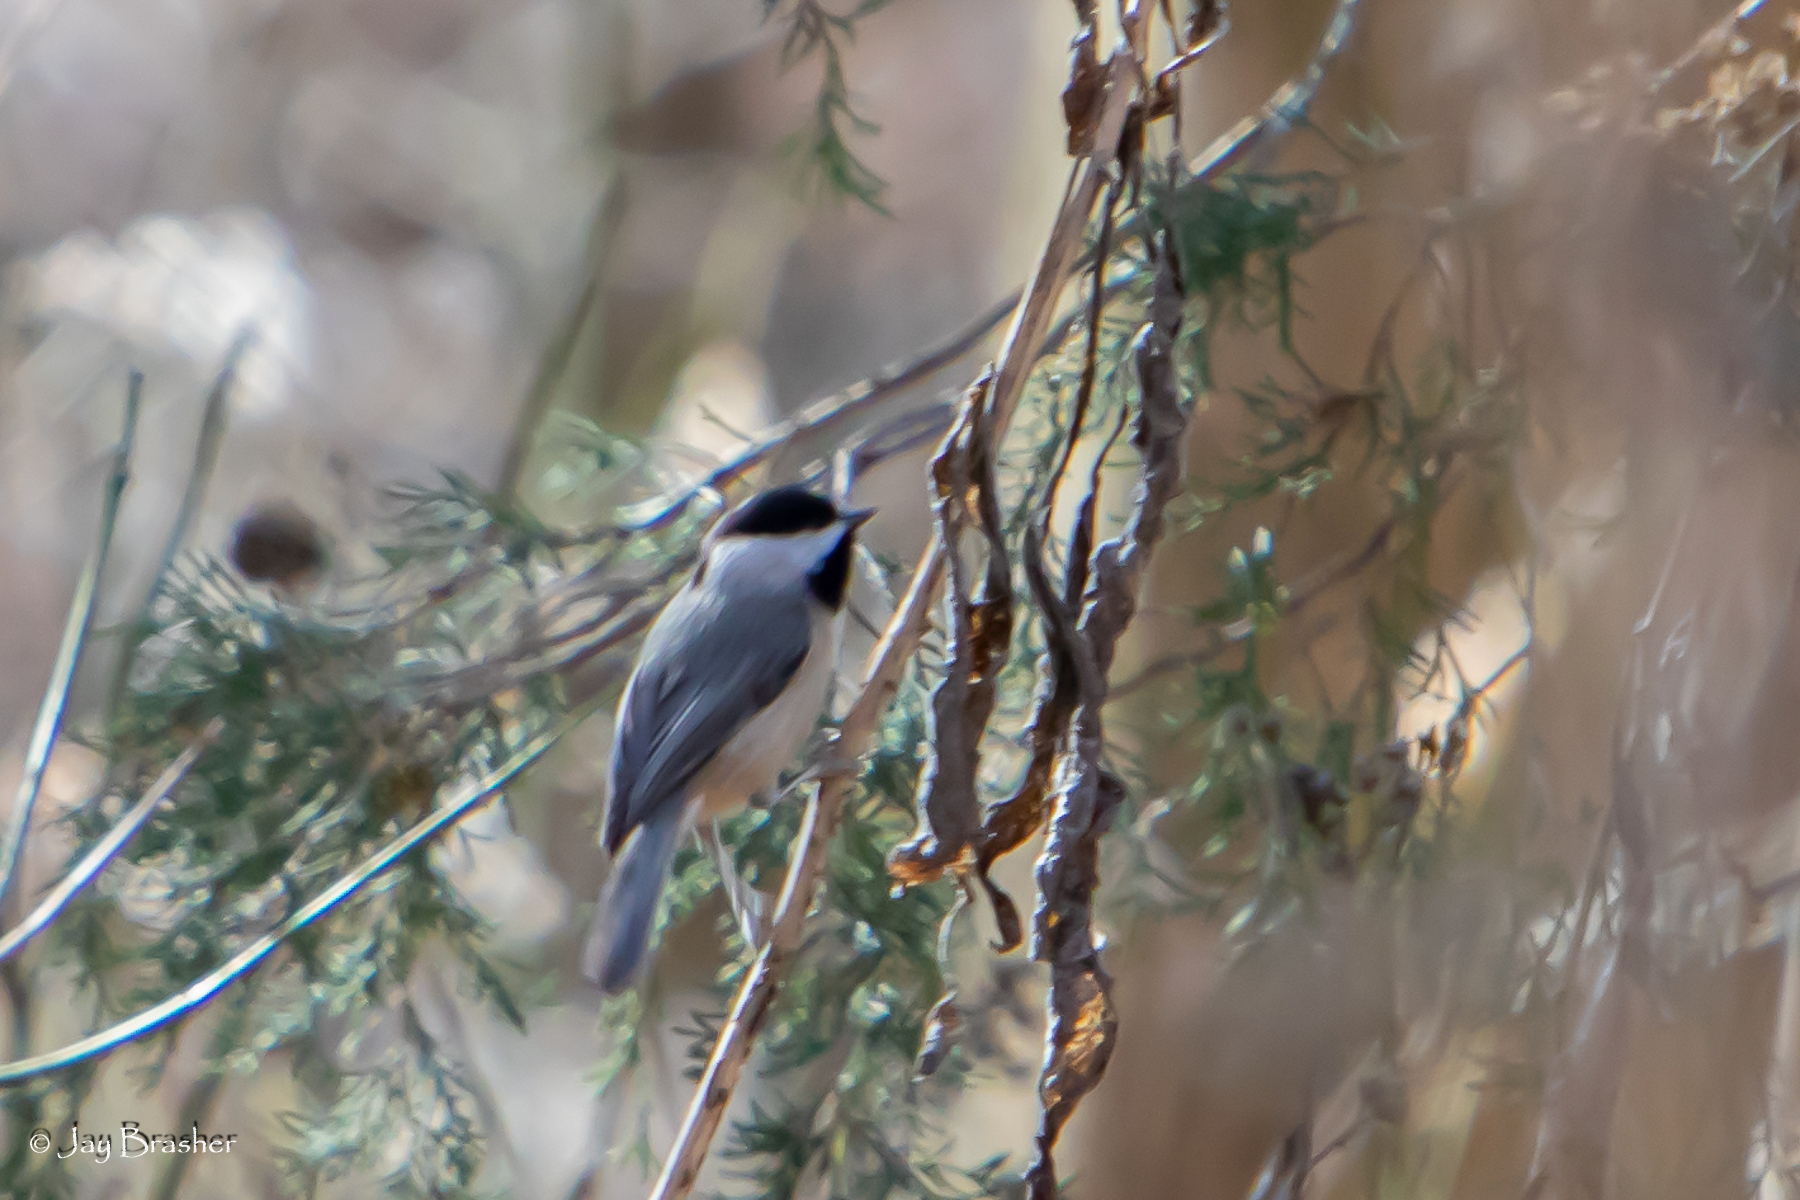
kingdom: Animalia
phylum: Chordata
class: Aves
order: Passeriformes
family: Paridae
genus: Poecile
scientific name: Poecile carolinensis
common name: Carolina chickadee
